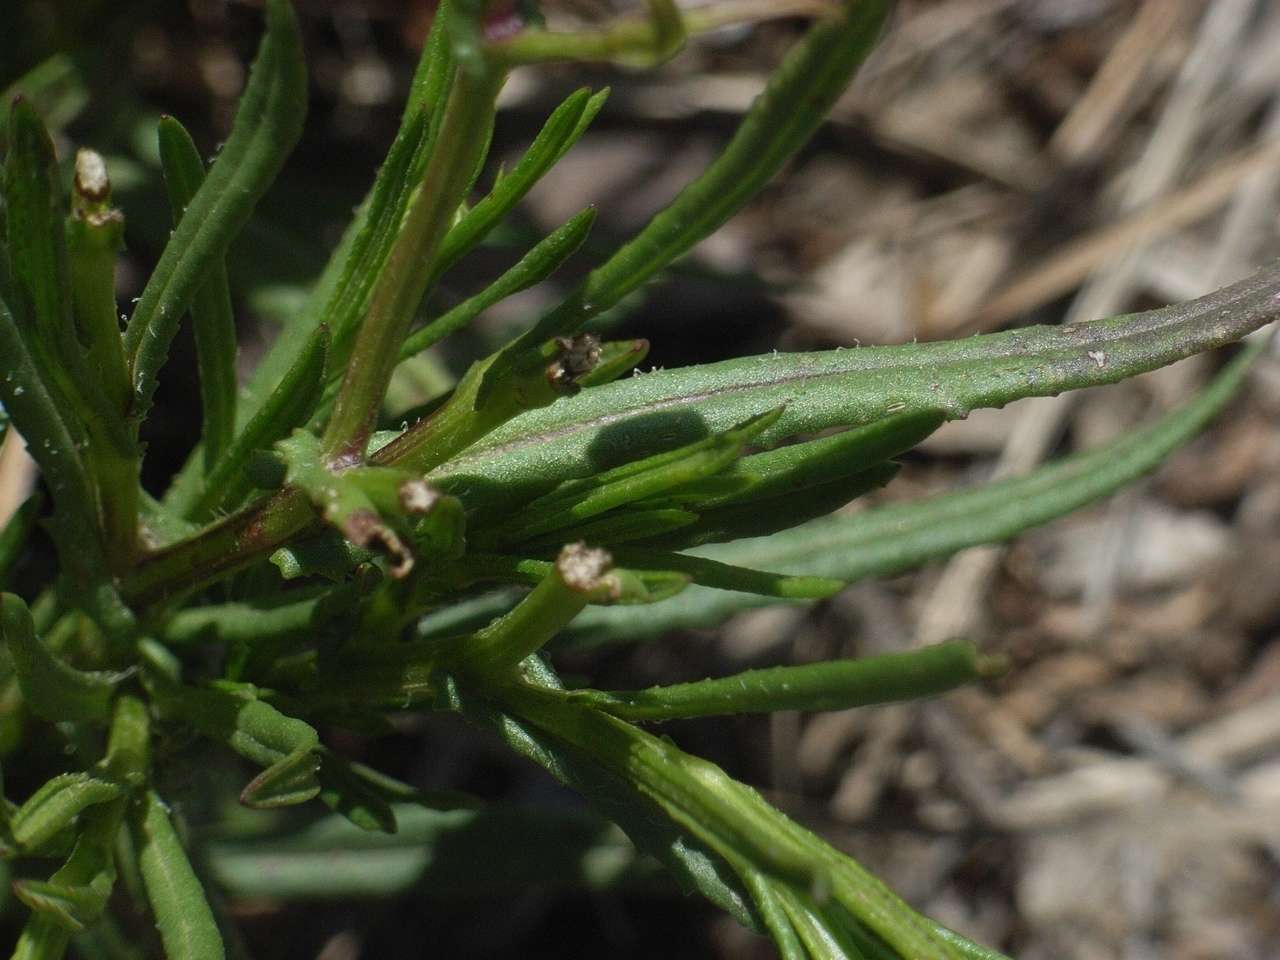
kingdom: Plantae
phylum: Tracheophyta
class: Magnoliopsida
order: Asterales
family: Asteraceae
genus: Senecio
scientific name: Senecio madagascariensis
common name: Madagascar ragwort
